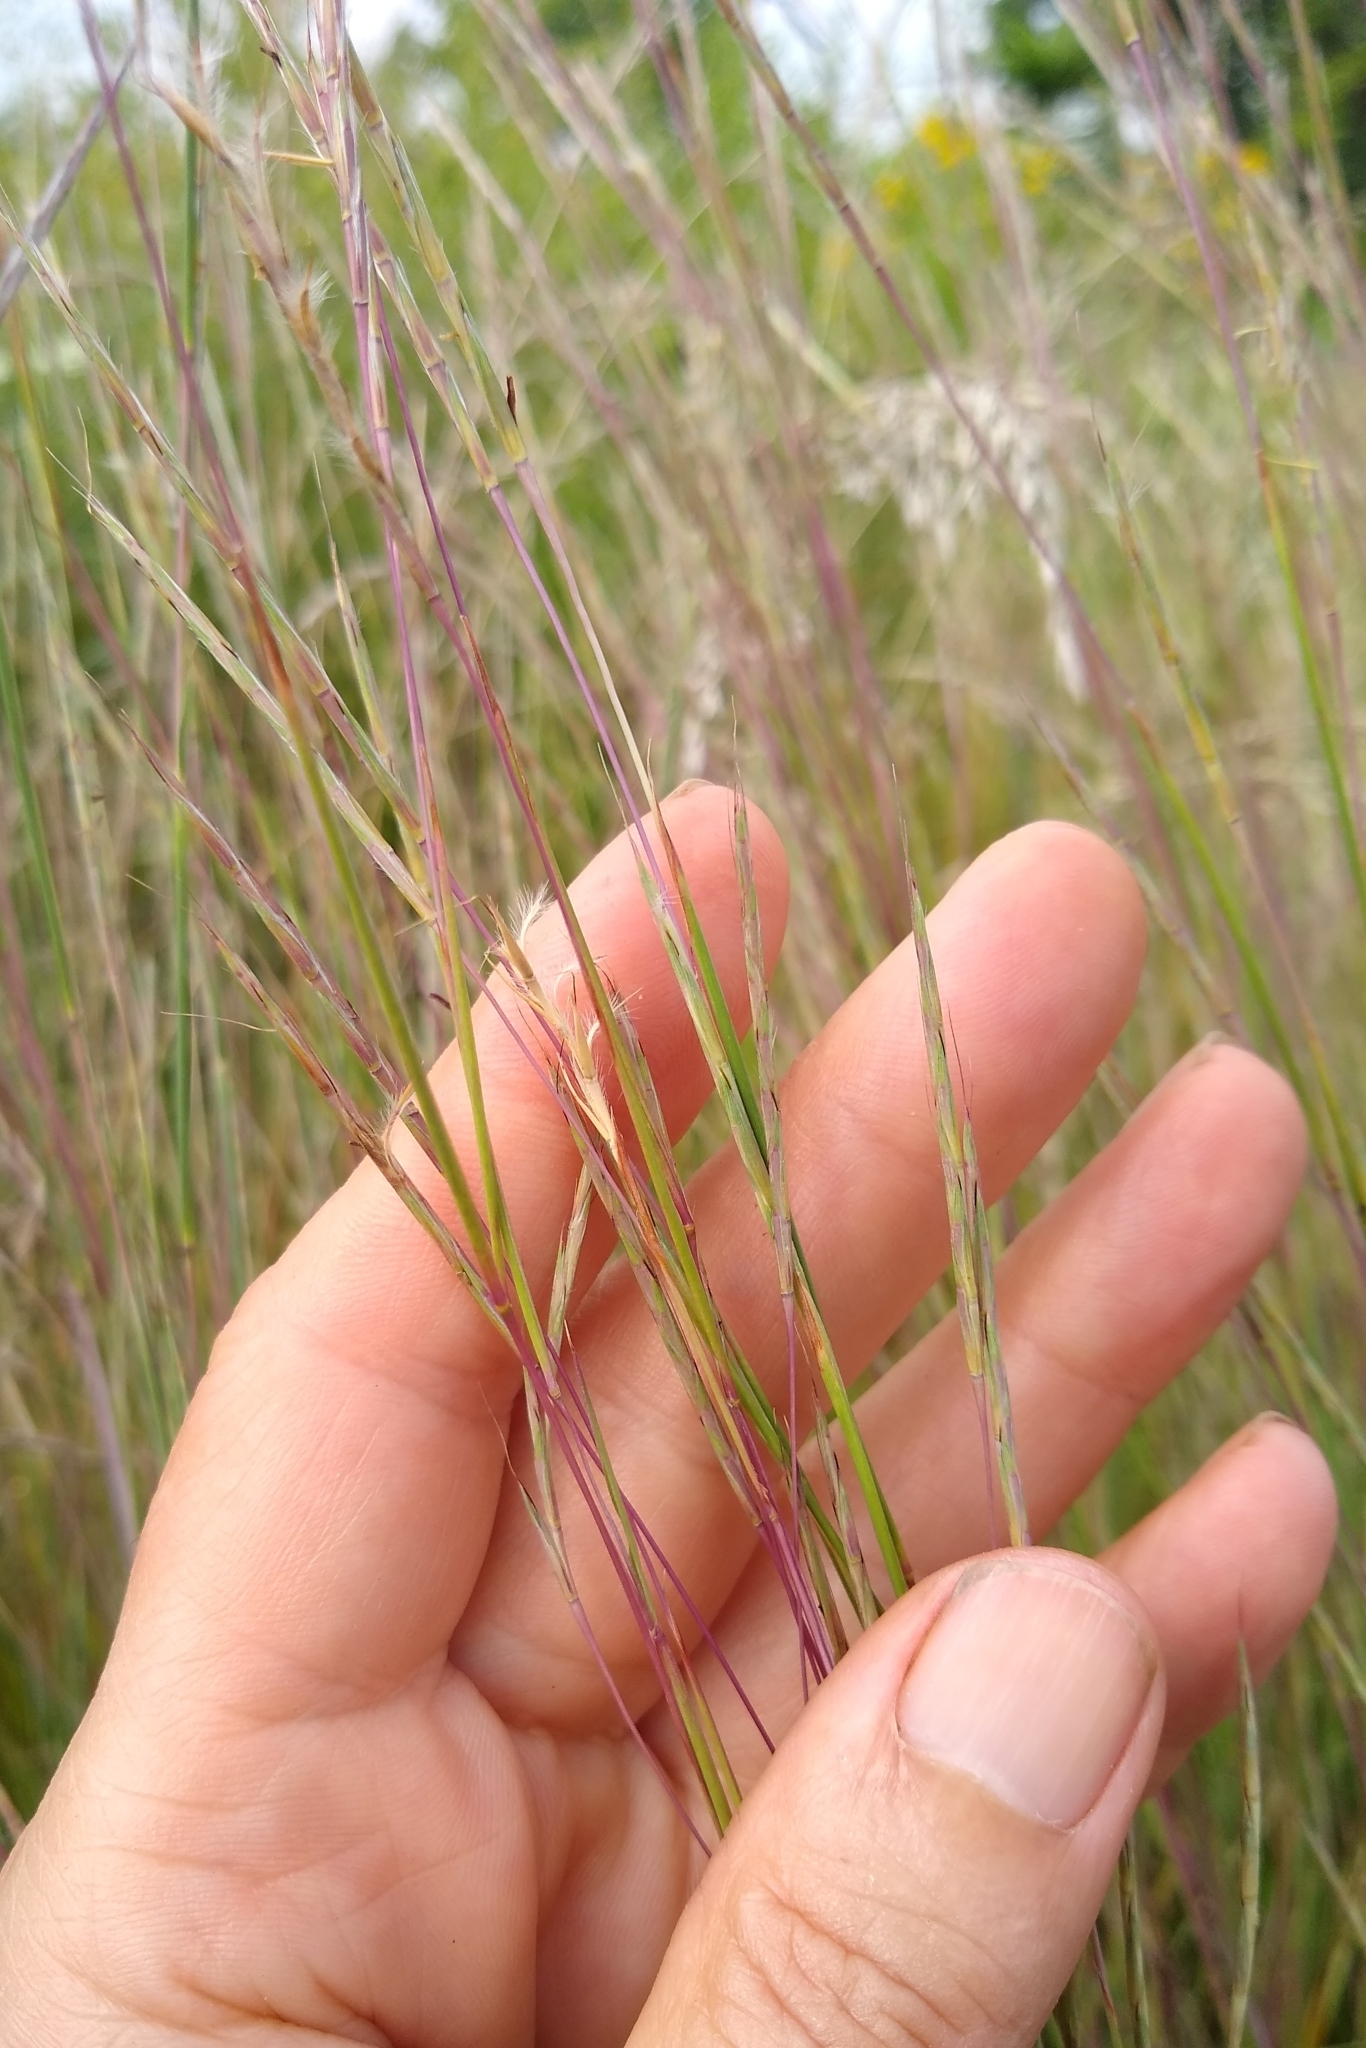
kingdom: Plantae
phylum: Tracheophyta
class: Liliopsida
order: Poales
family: Poaceae
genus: Schizachyrium
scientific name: Schizachyrium scoparium
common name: Little bluestem
